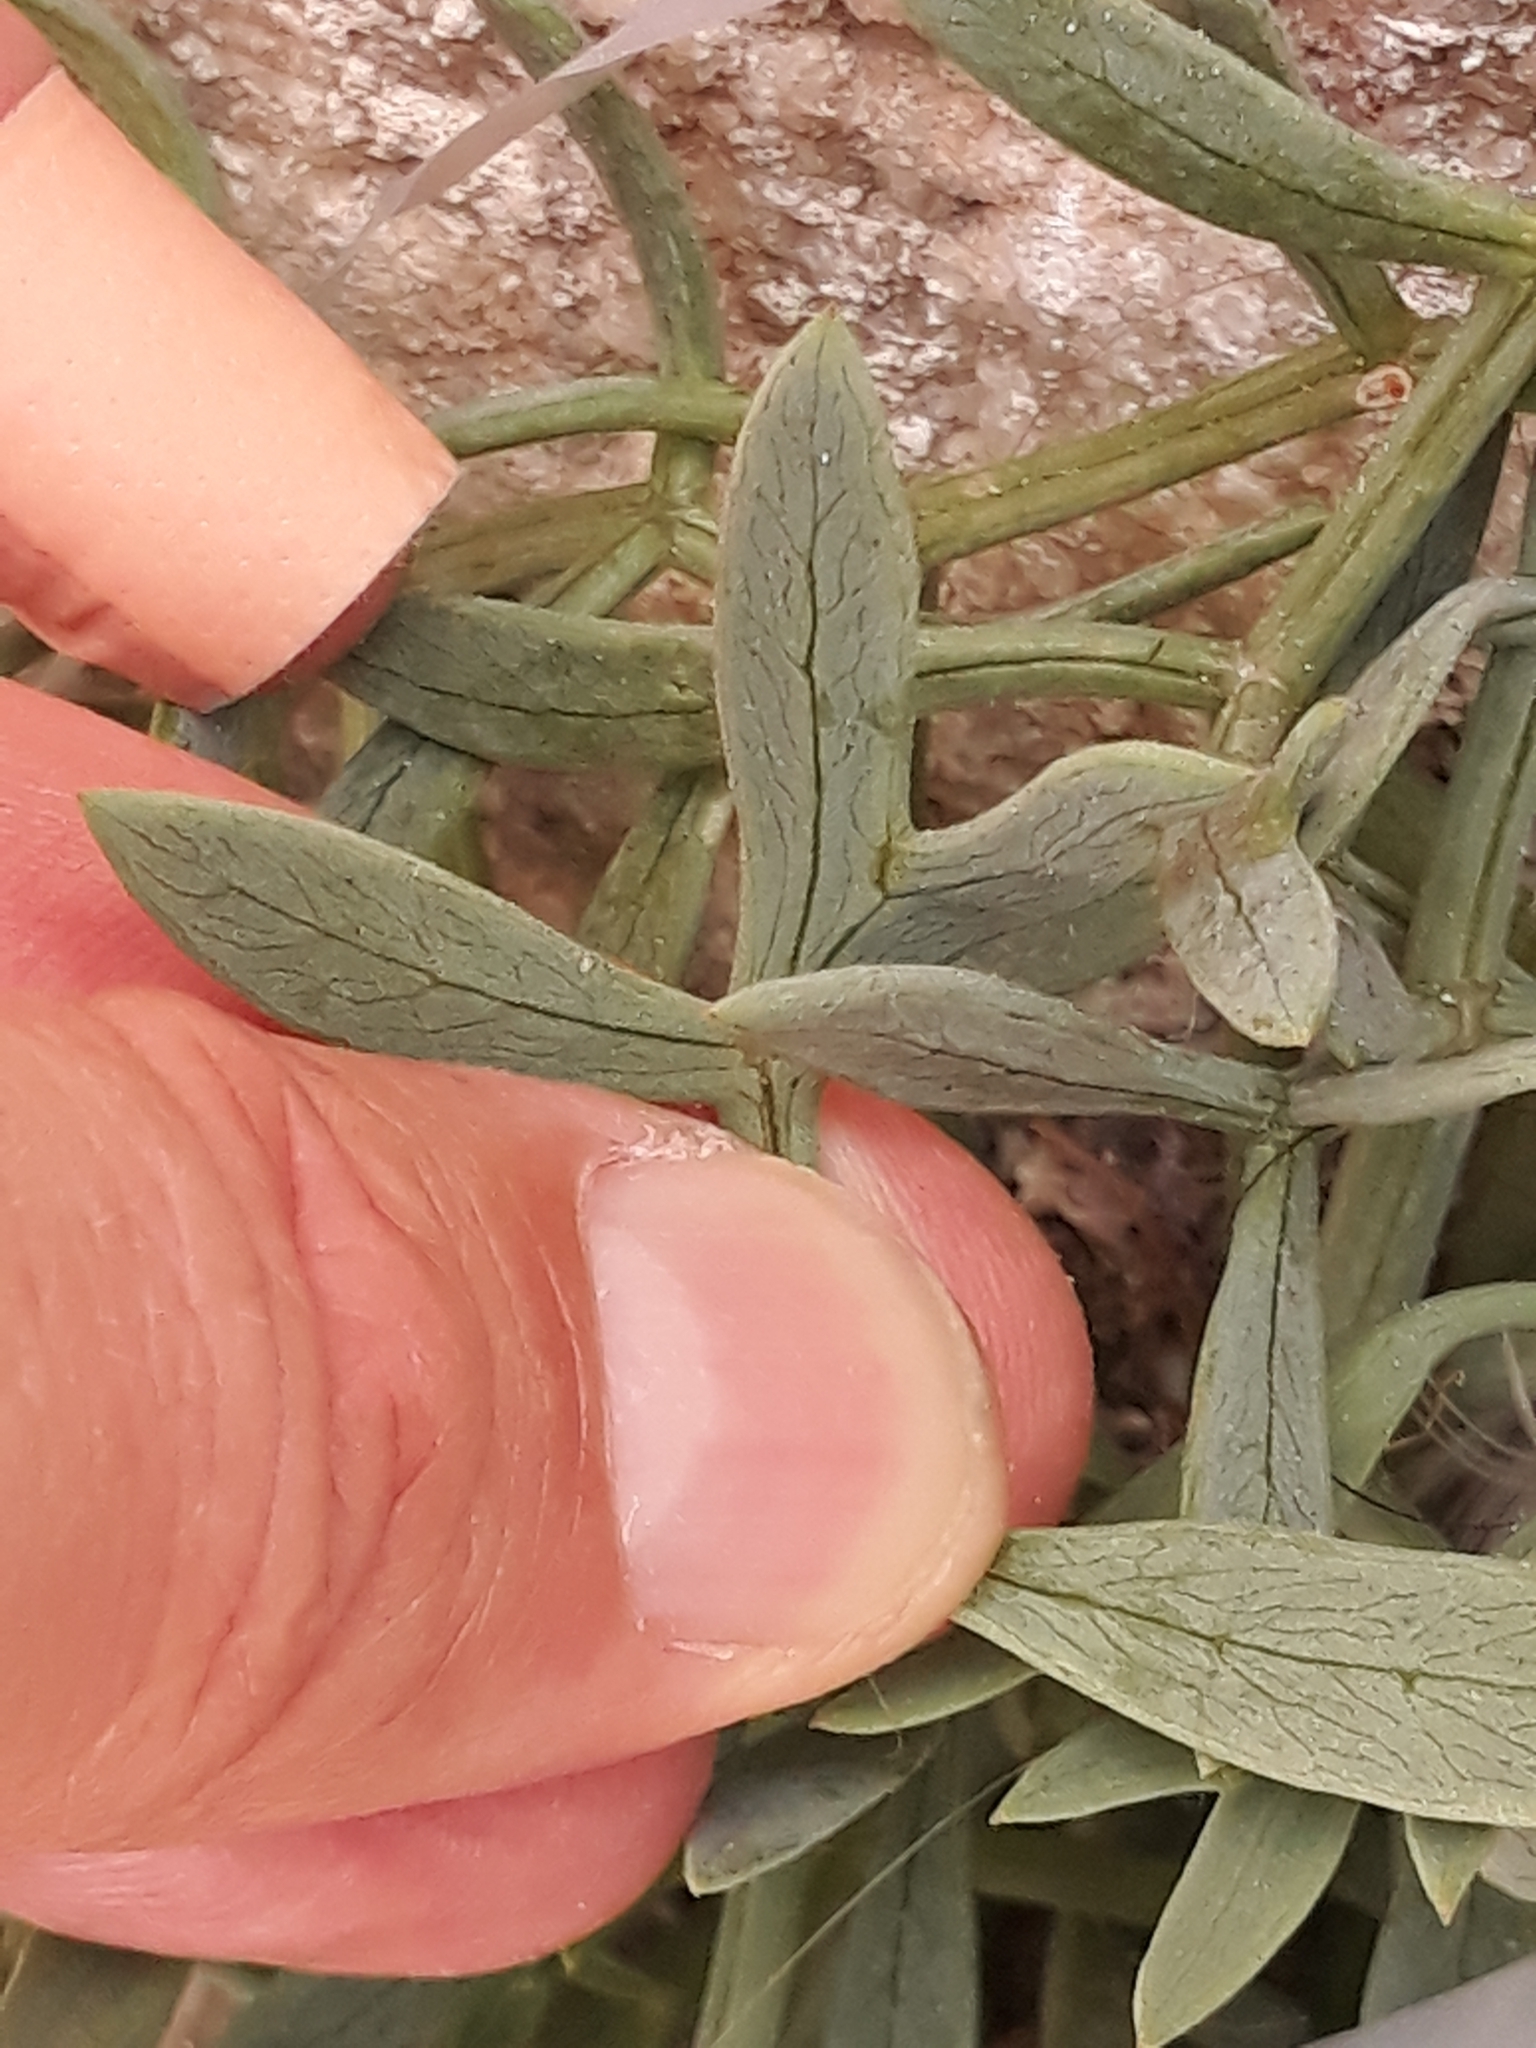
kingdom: Plantae
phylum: Tracheophyta
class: Magnoliopsida
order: Apiales
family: Apiaceae
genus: Crithmum
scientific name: Crithmum maritimum
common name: Rock samphire
